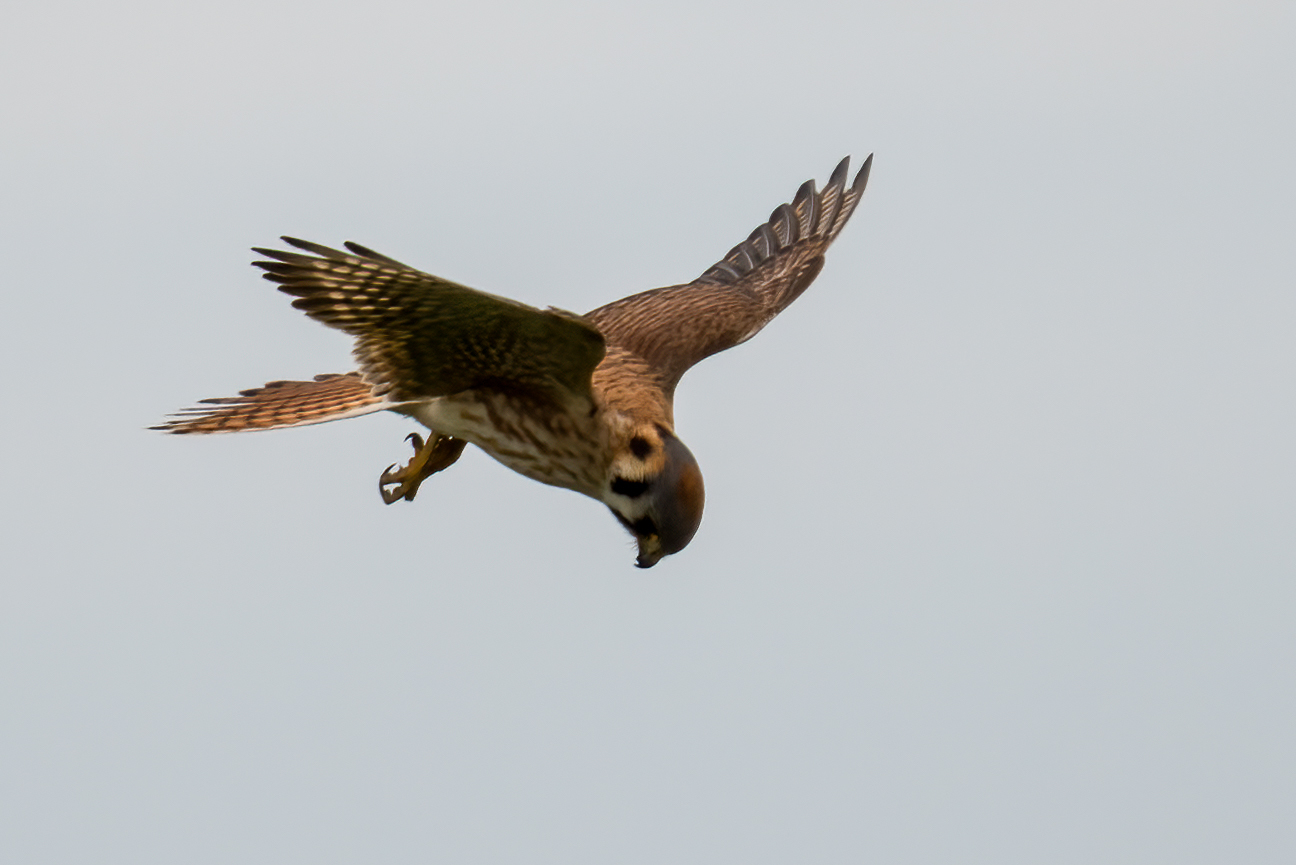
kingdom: Animalia
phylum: Chordata
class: Aves
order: Falconiformes
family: Falconidae
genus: Falco
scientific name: Falco sparverius
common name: American kestrel
